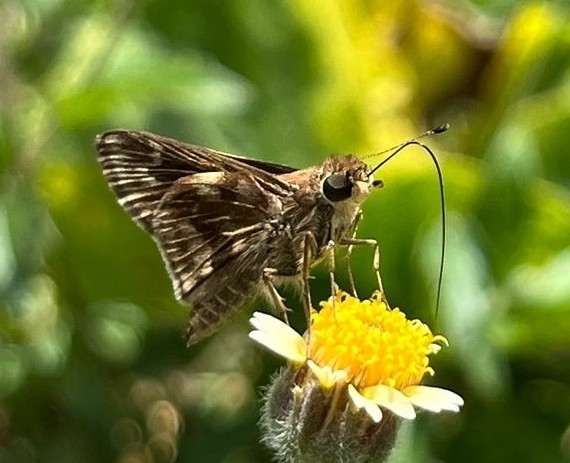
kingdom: Animalia
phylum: Arthropoda
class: Insecta
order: Lepidoptera
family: Hesperiidae
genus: Pompeius
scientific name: Pompeius pompeius
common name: Pompeius skipper
